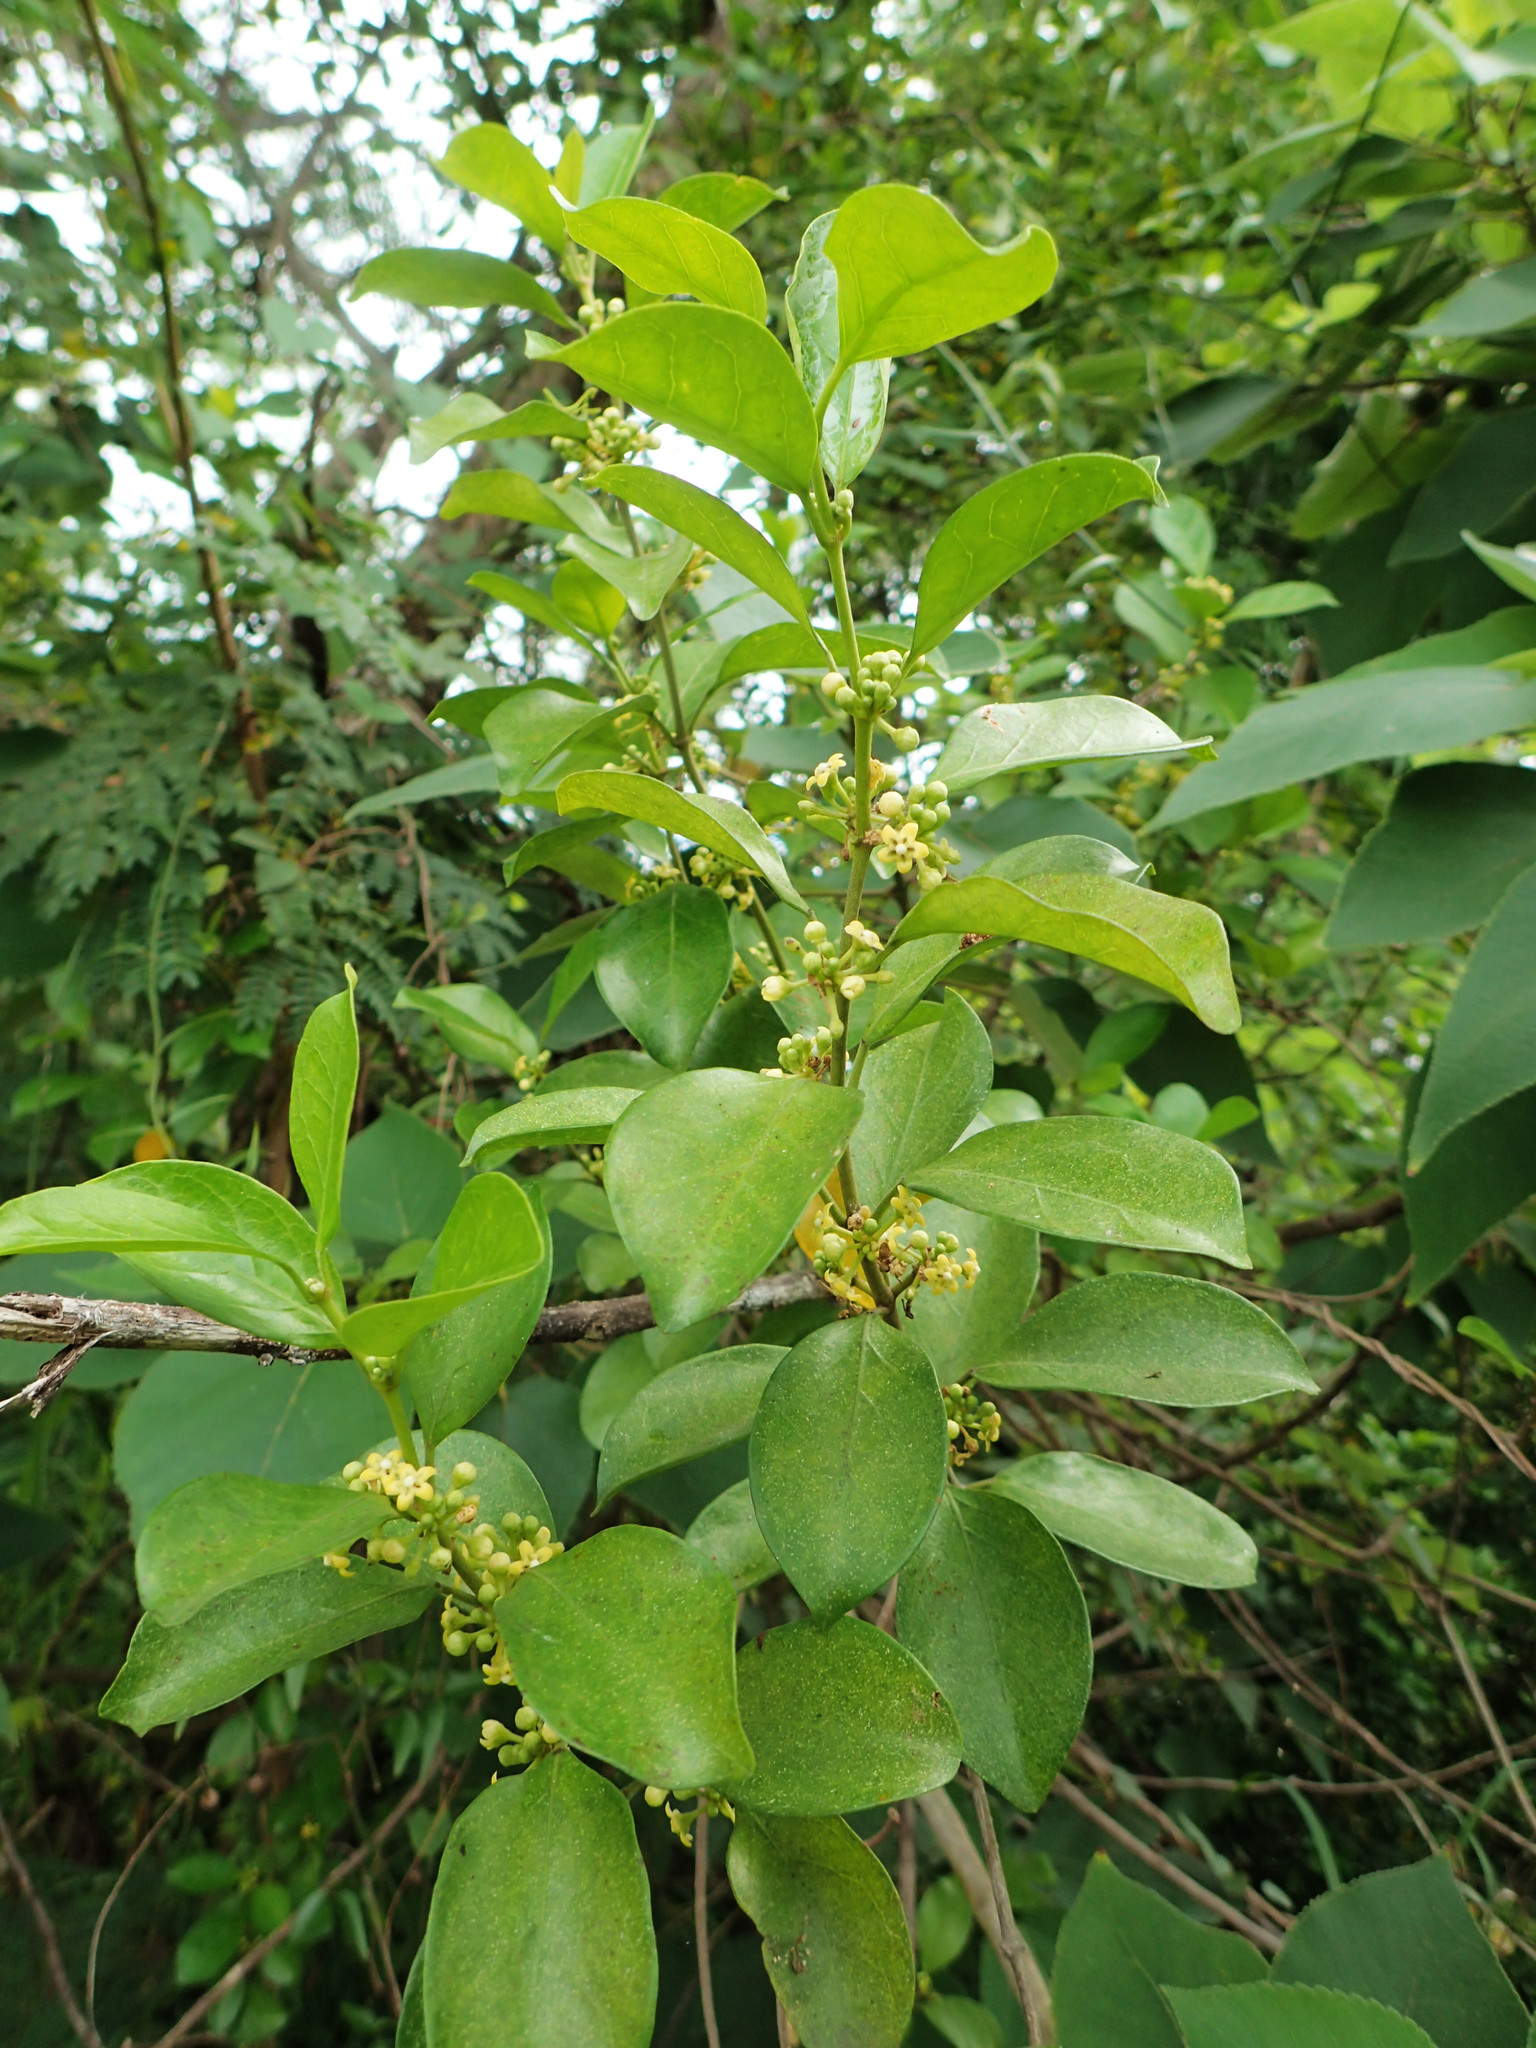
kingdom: Plantae
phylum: Tracheophyta
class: Magnoliopsida
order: Gentianales
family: Apocynaceae
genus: Gymnema
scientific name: Gymnema sylvestre
